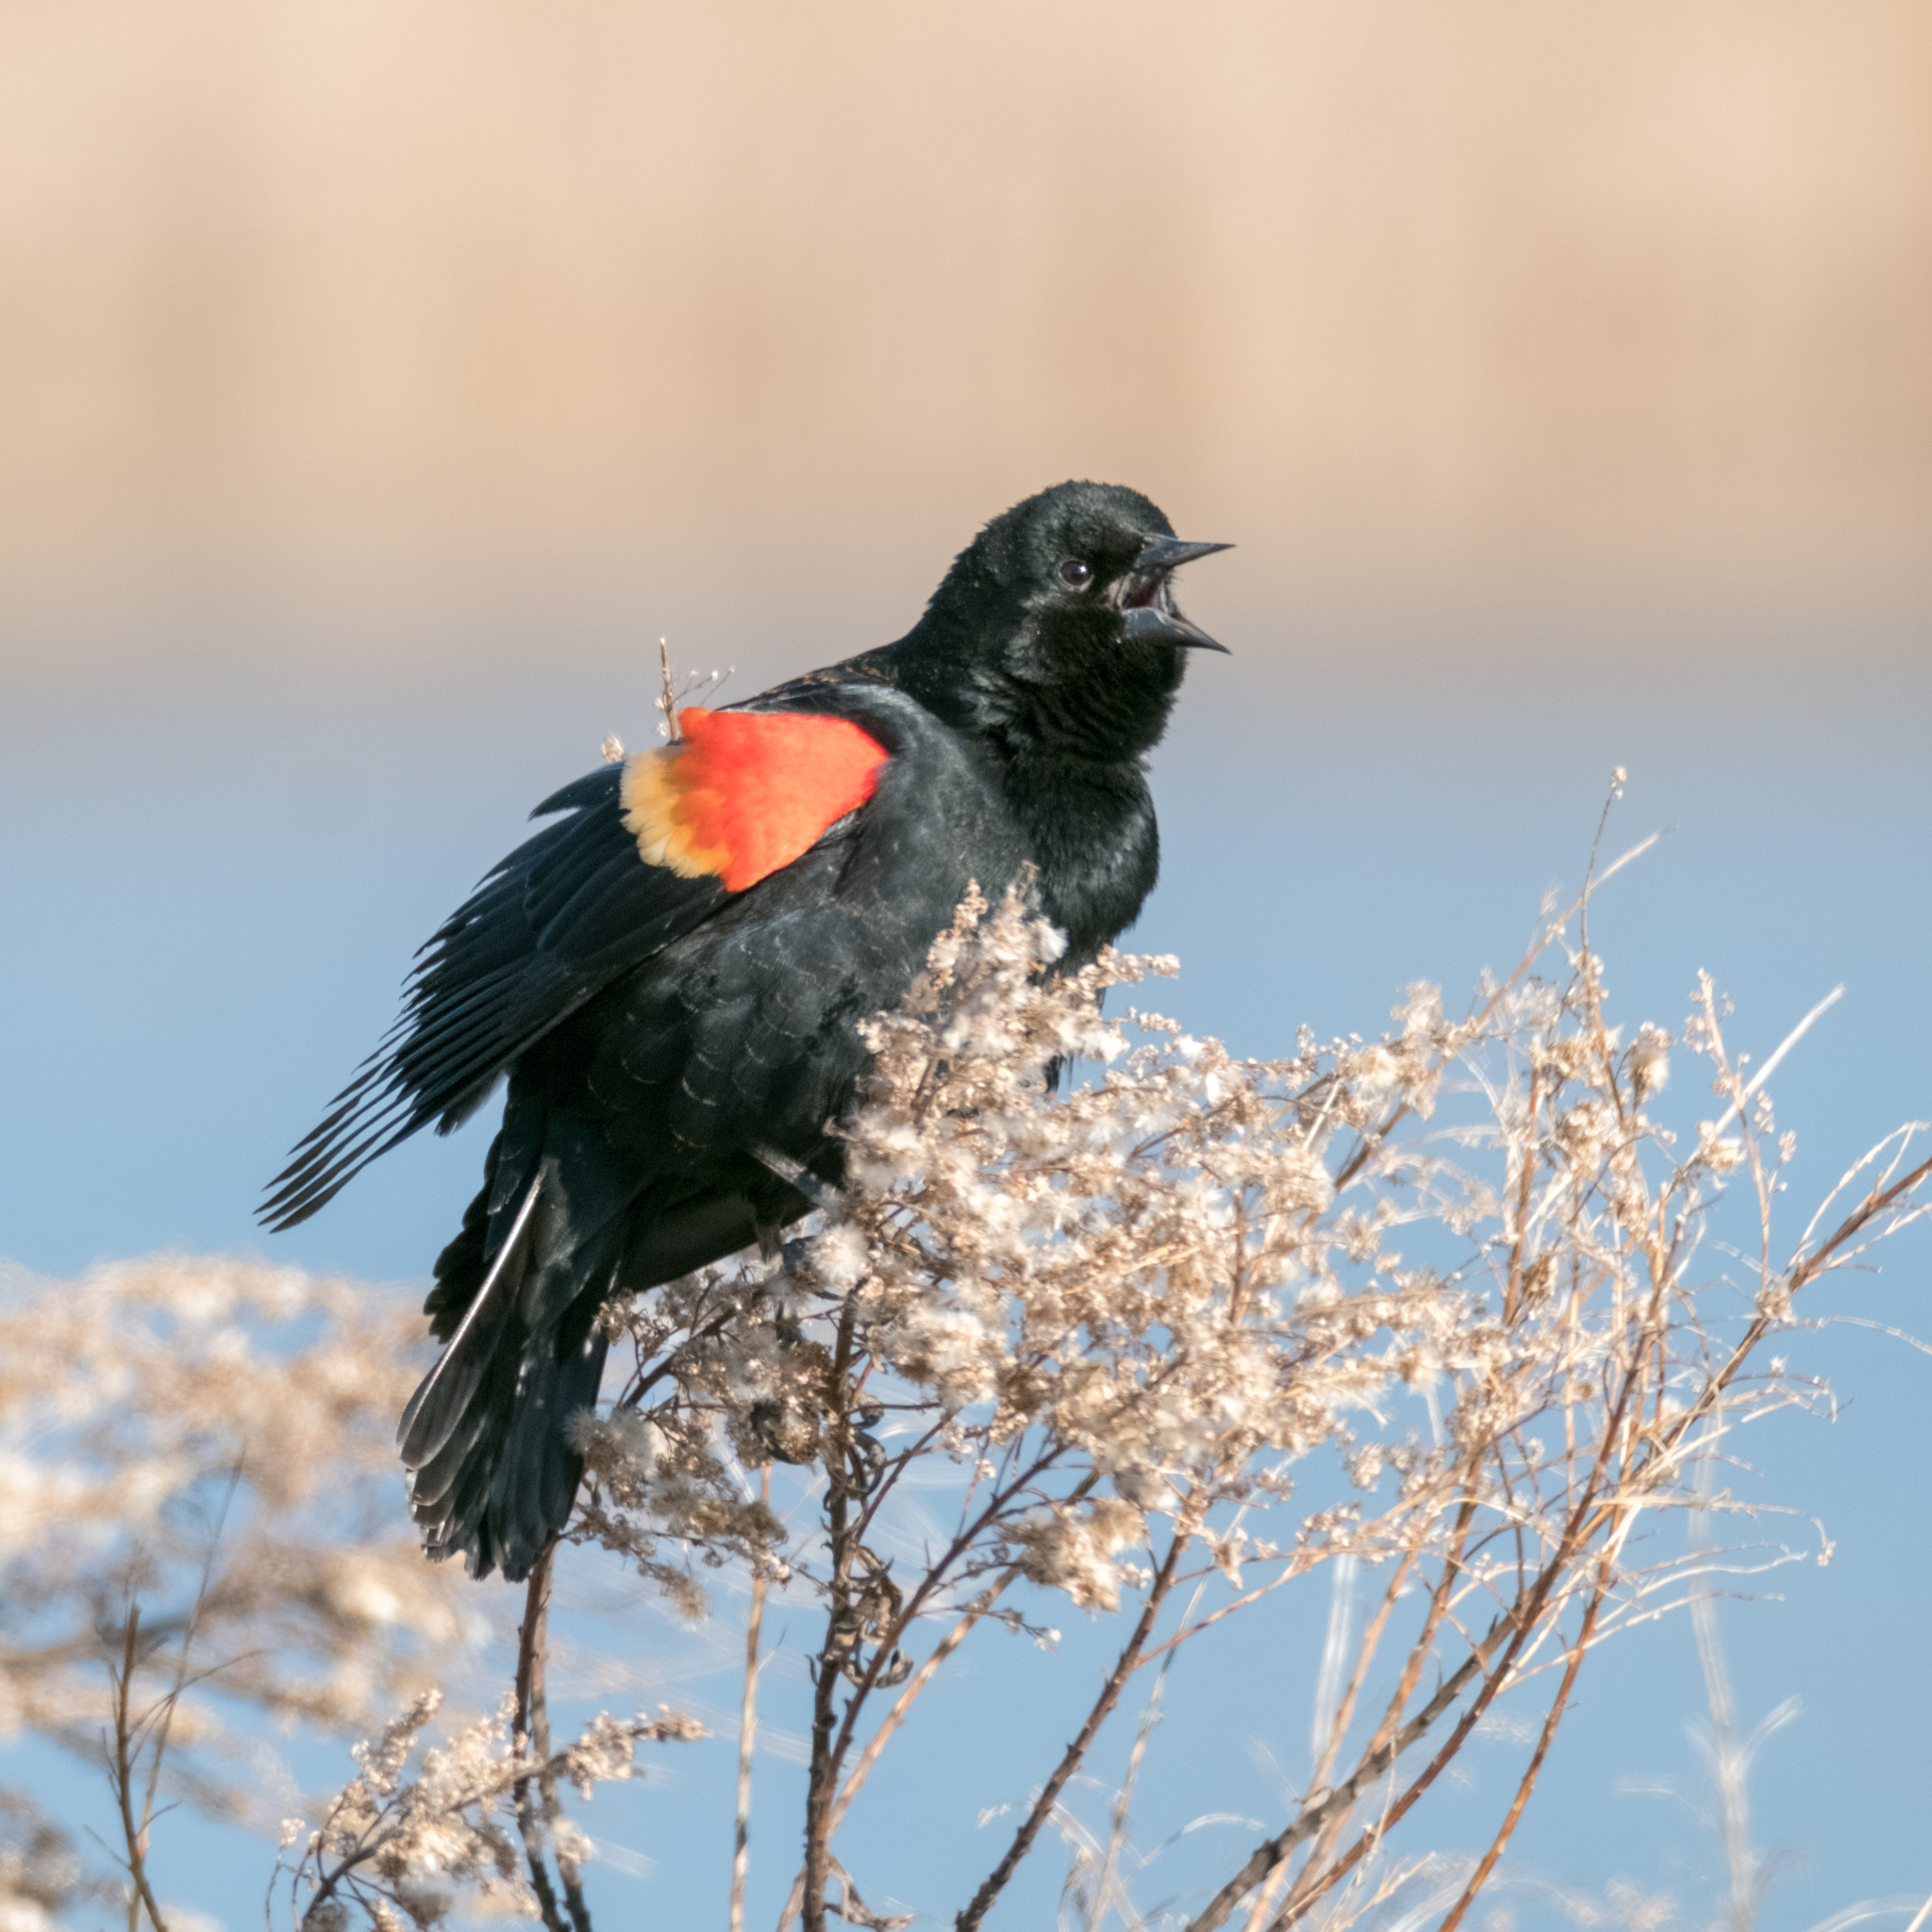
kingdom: Animalia
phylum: Chordata
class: Aves
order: Passeriformes
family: Icteridae
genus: Agelaius
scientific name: Agelaius phoeniceus
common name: Red-winged blackbird
